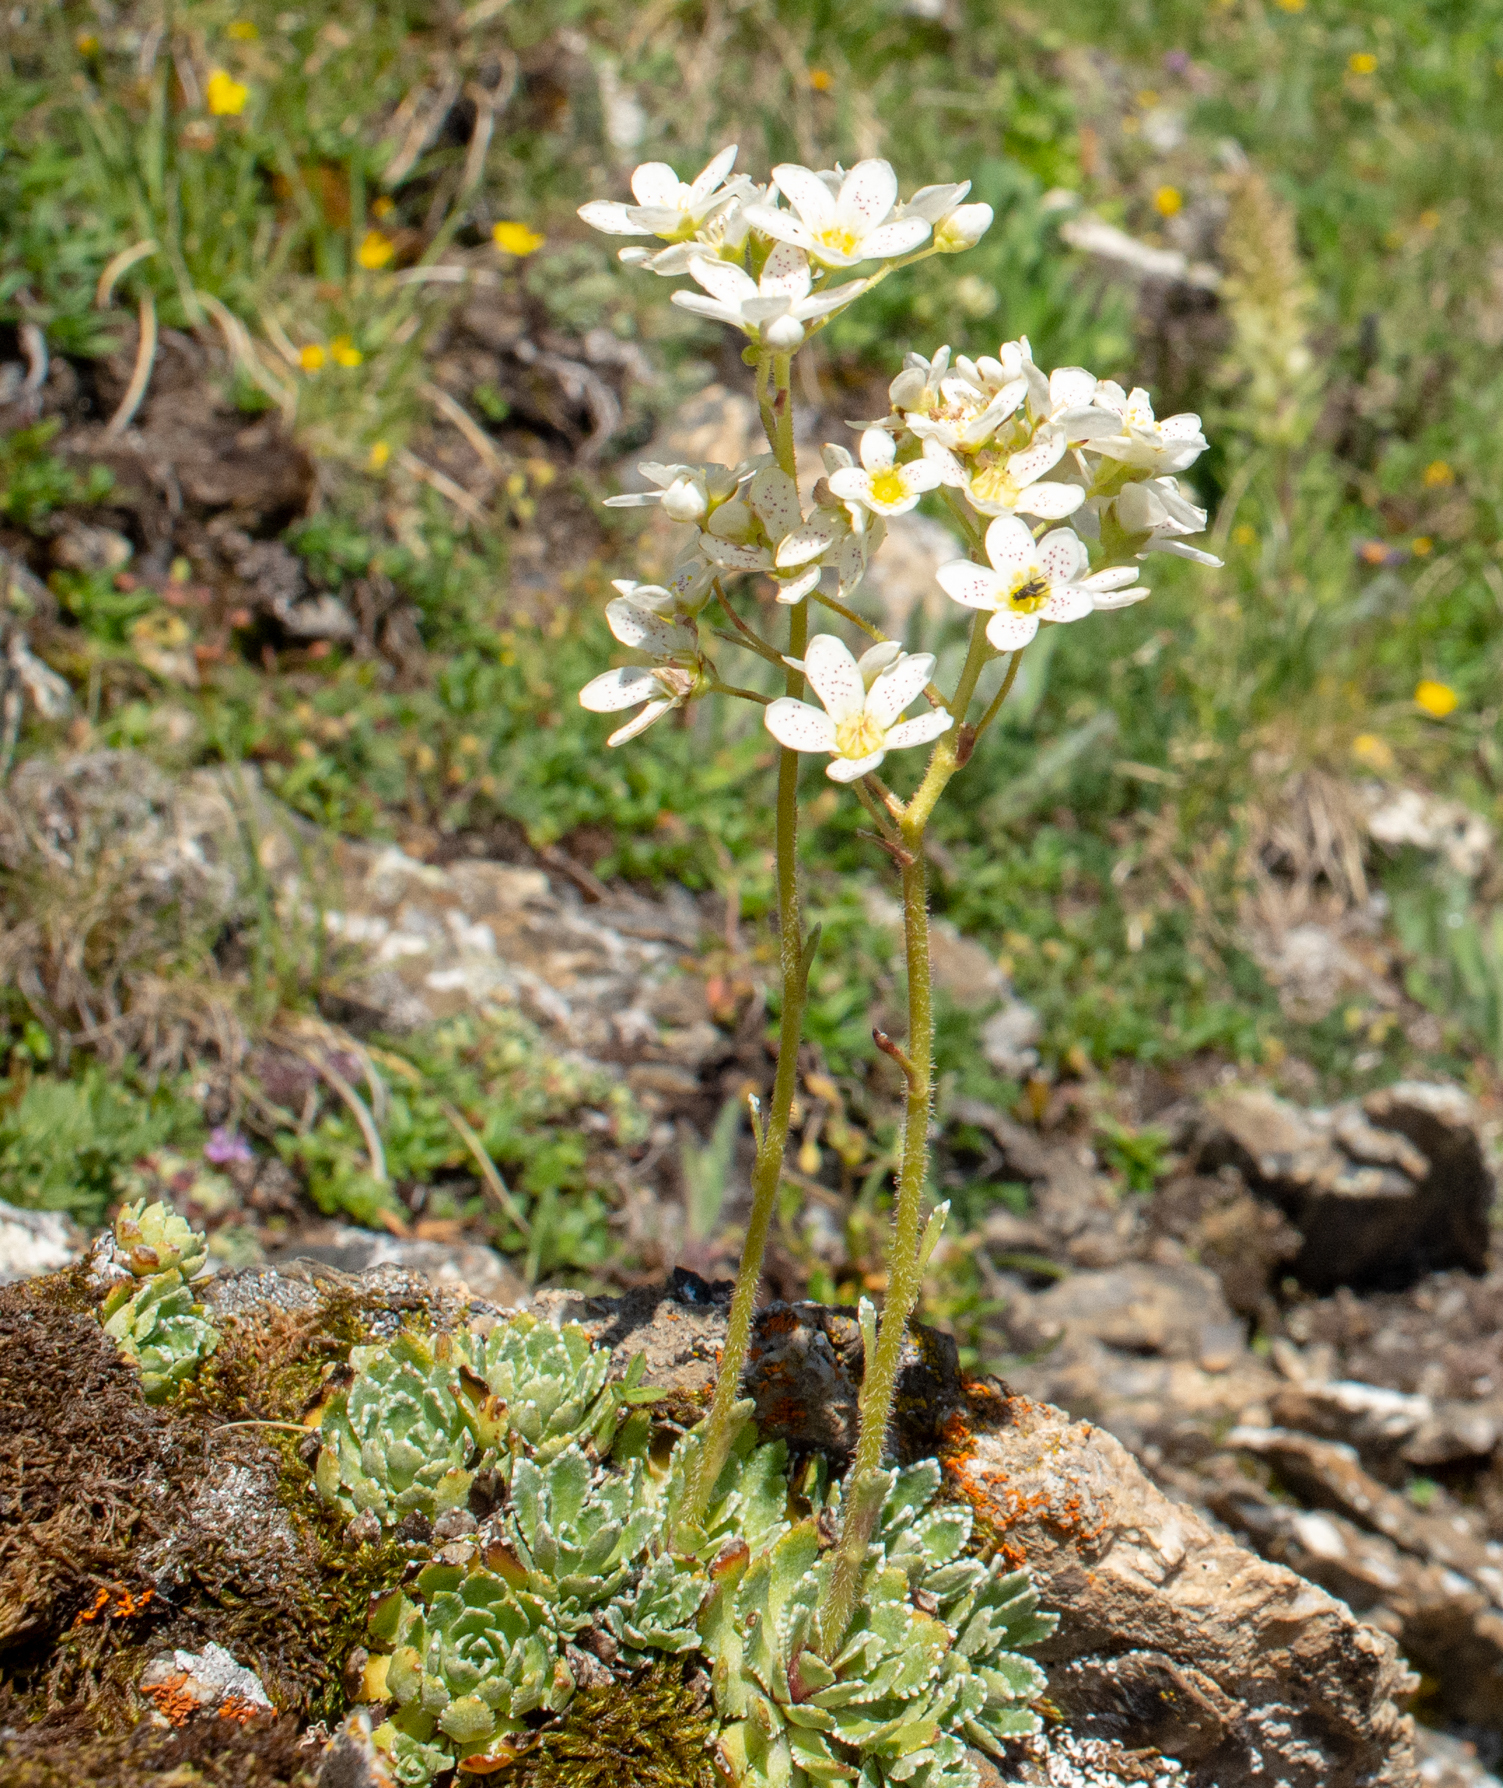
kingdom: Plantae
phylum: Tracheophyta
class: Magnoliopsida
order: Saxifragales
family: Saxifragaceae
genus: Saxifraga
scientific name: Saxifraga paniculata
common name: Livelong saxifrage
